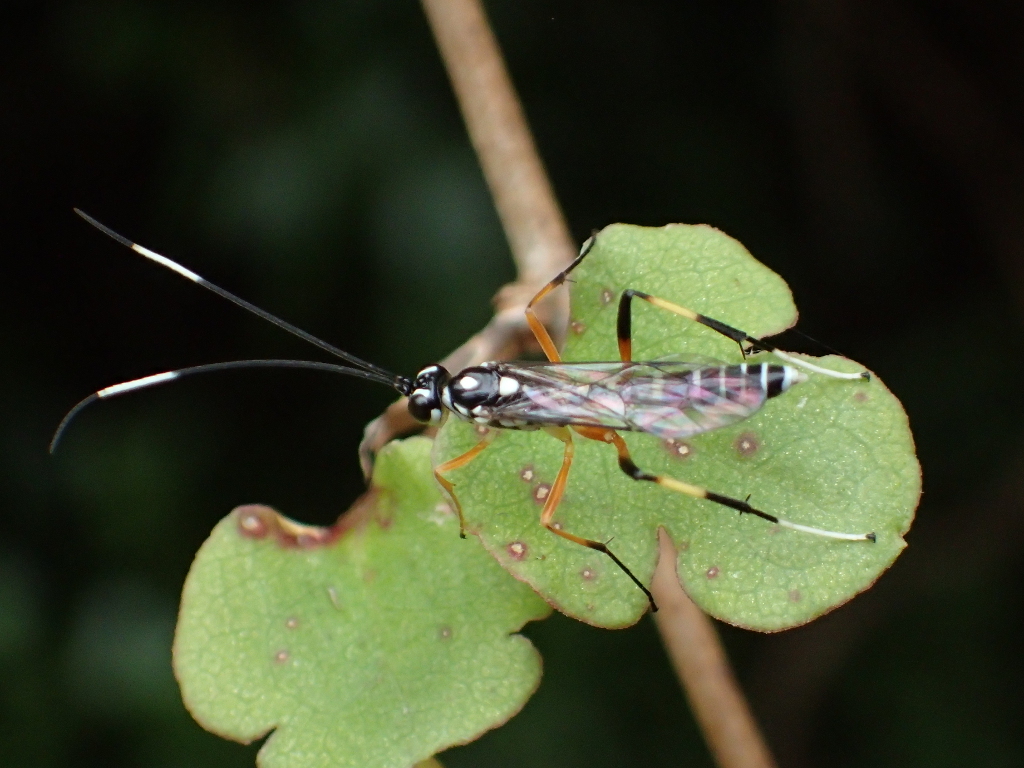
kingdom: Animalia
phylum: Arthropoda
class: Insecta
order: Hymenoptera
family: Ichneumonidae
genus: Xanthocryptus
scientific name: Xanthocryptus novozealandicus
